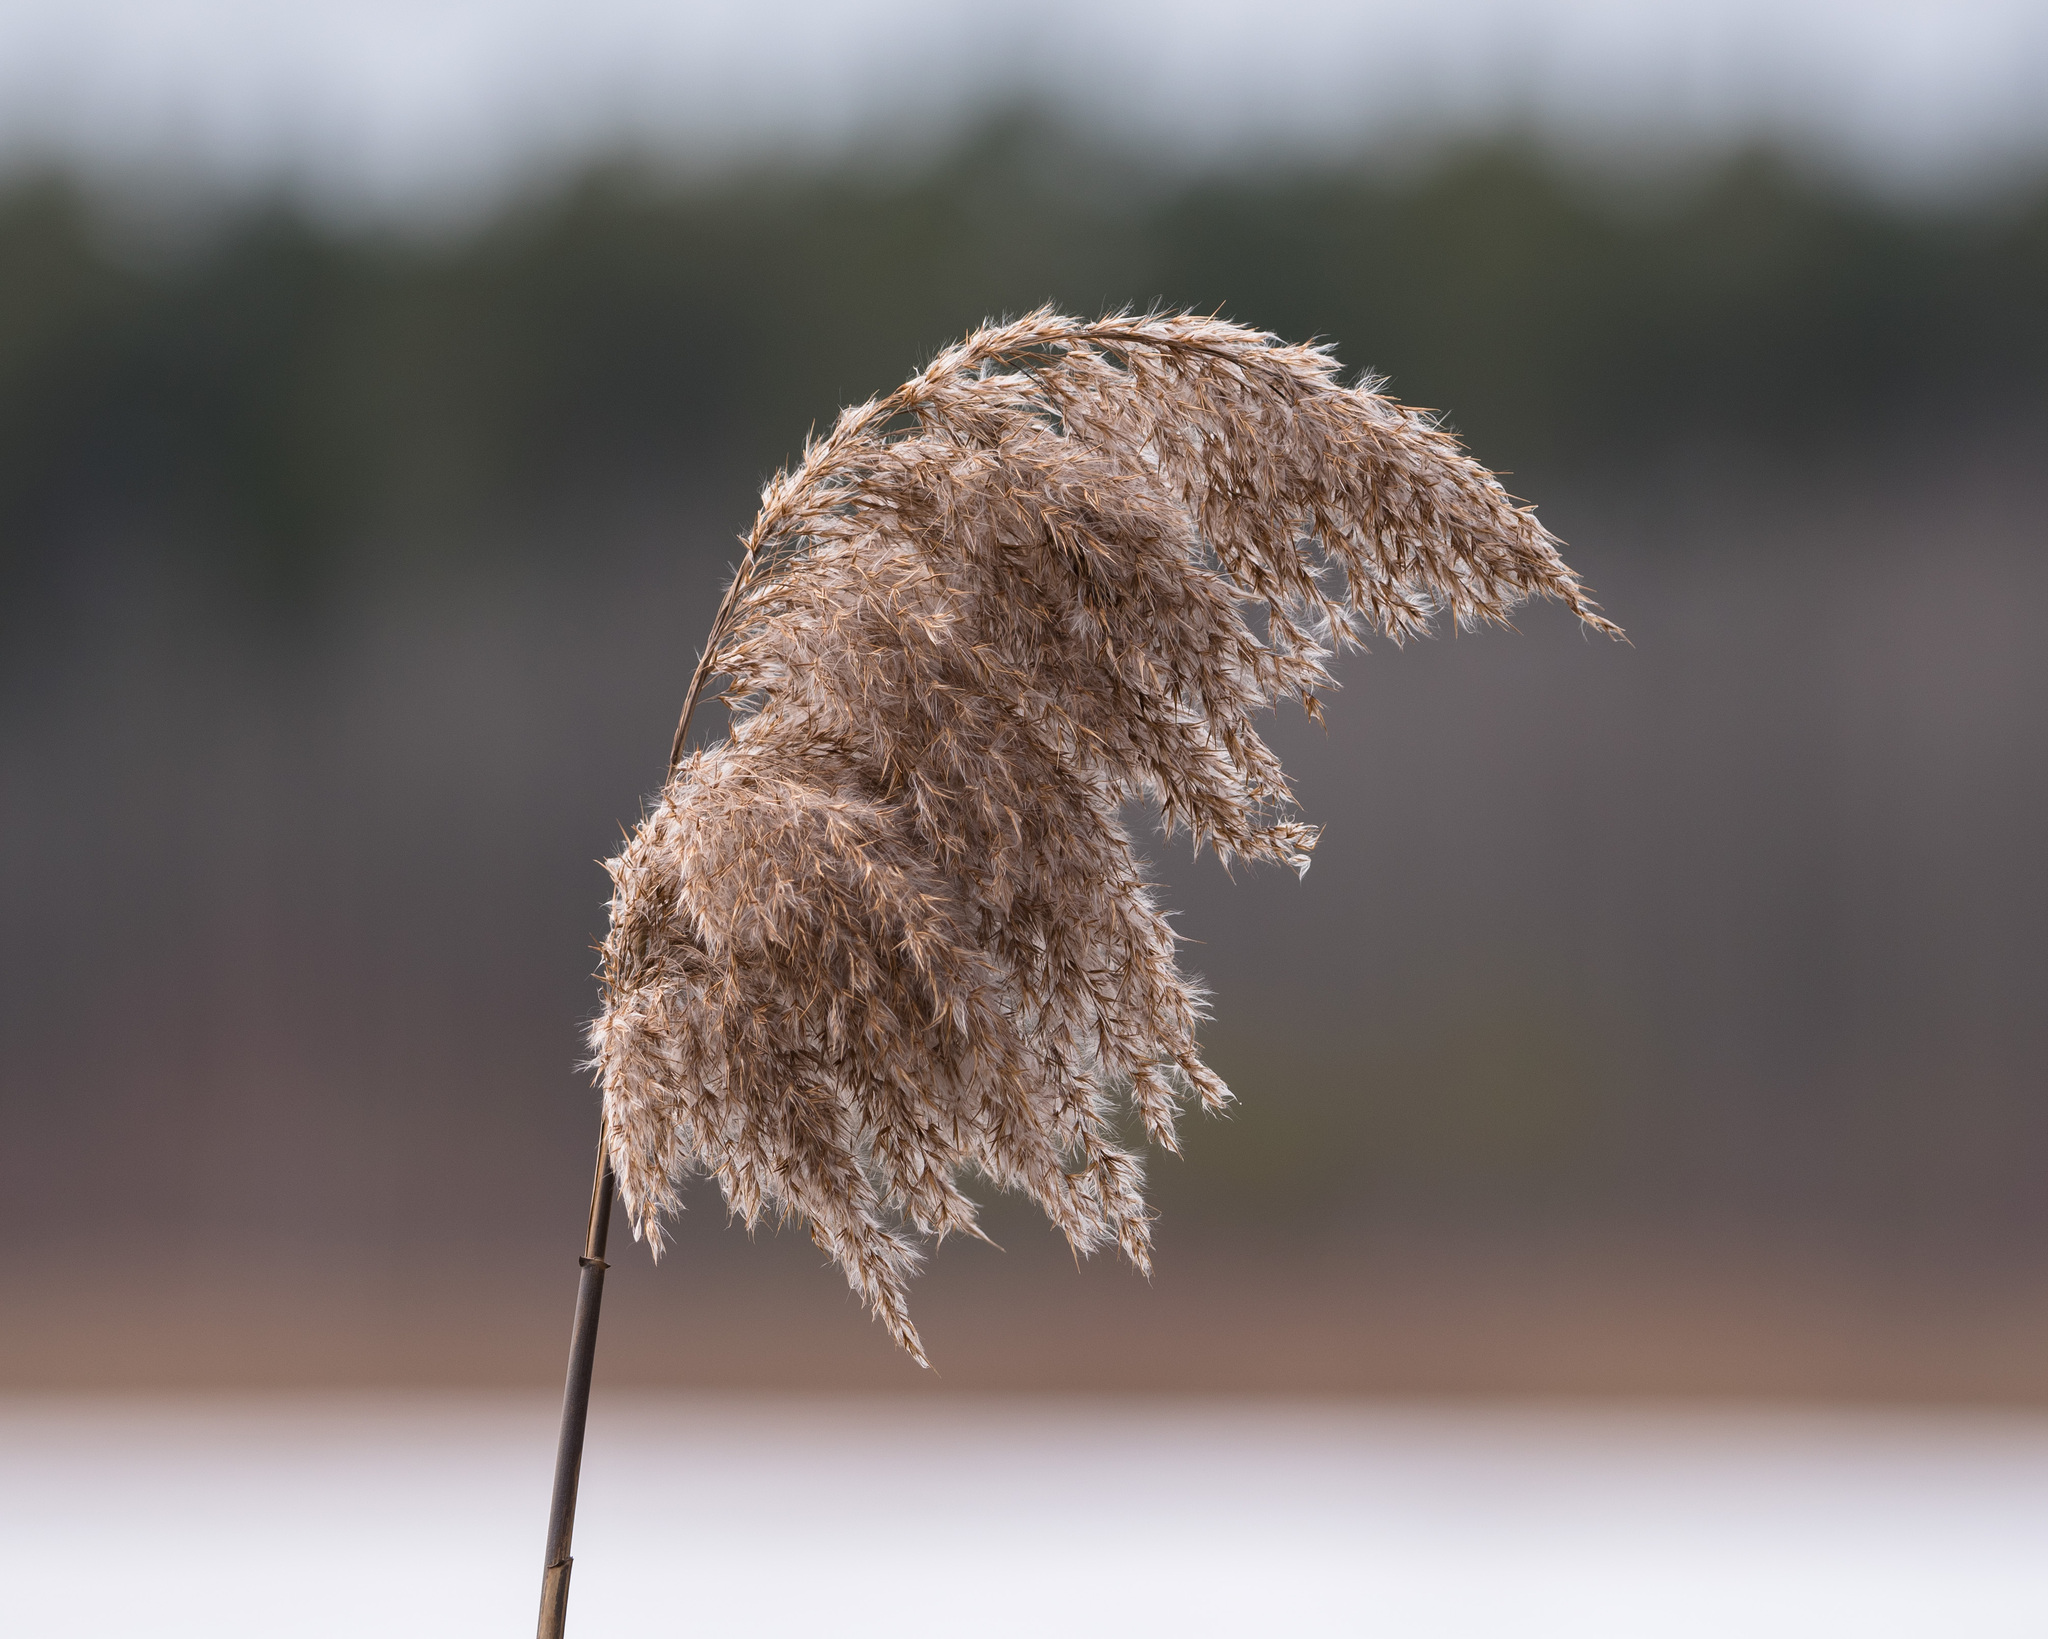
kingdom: Plantae
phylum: Tracheophyta
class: Liliopsida
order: Poales
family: Poaceae
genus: Phragmites
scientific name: Phragmites australis
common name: Common reed
